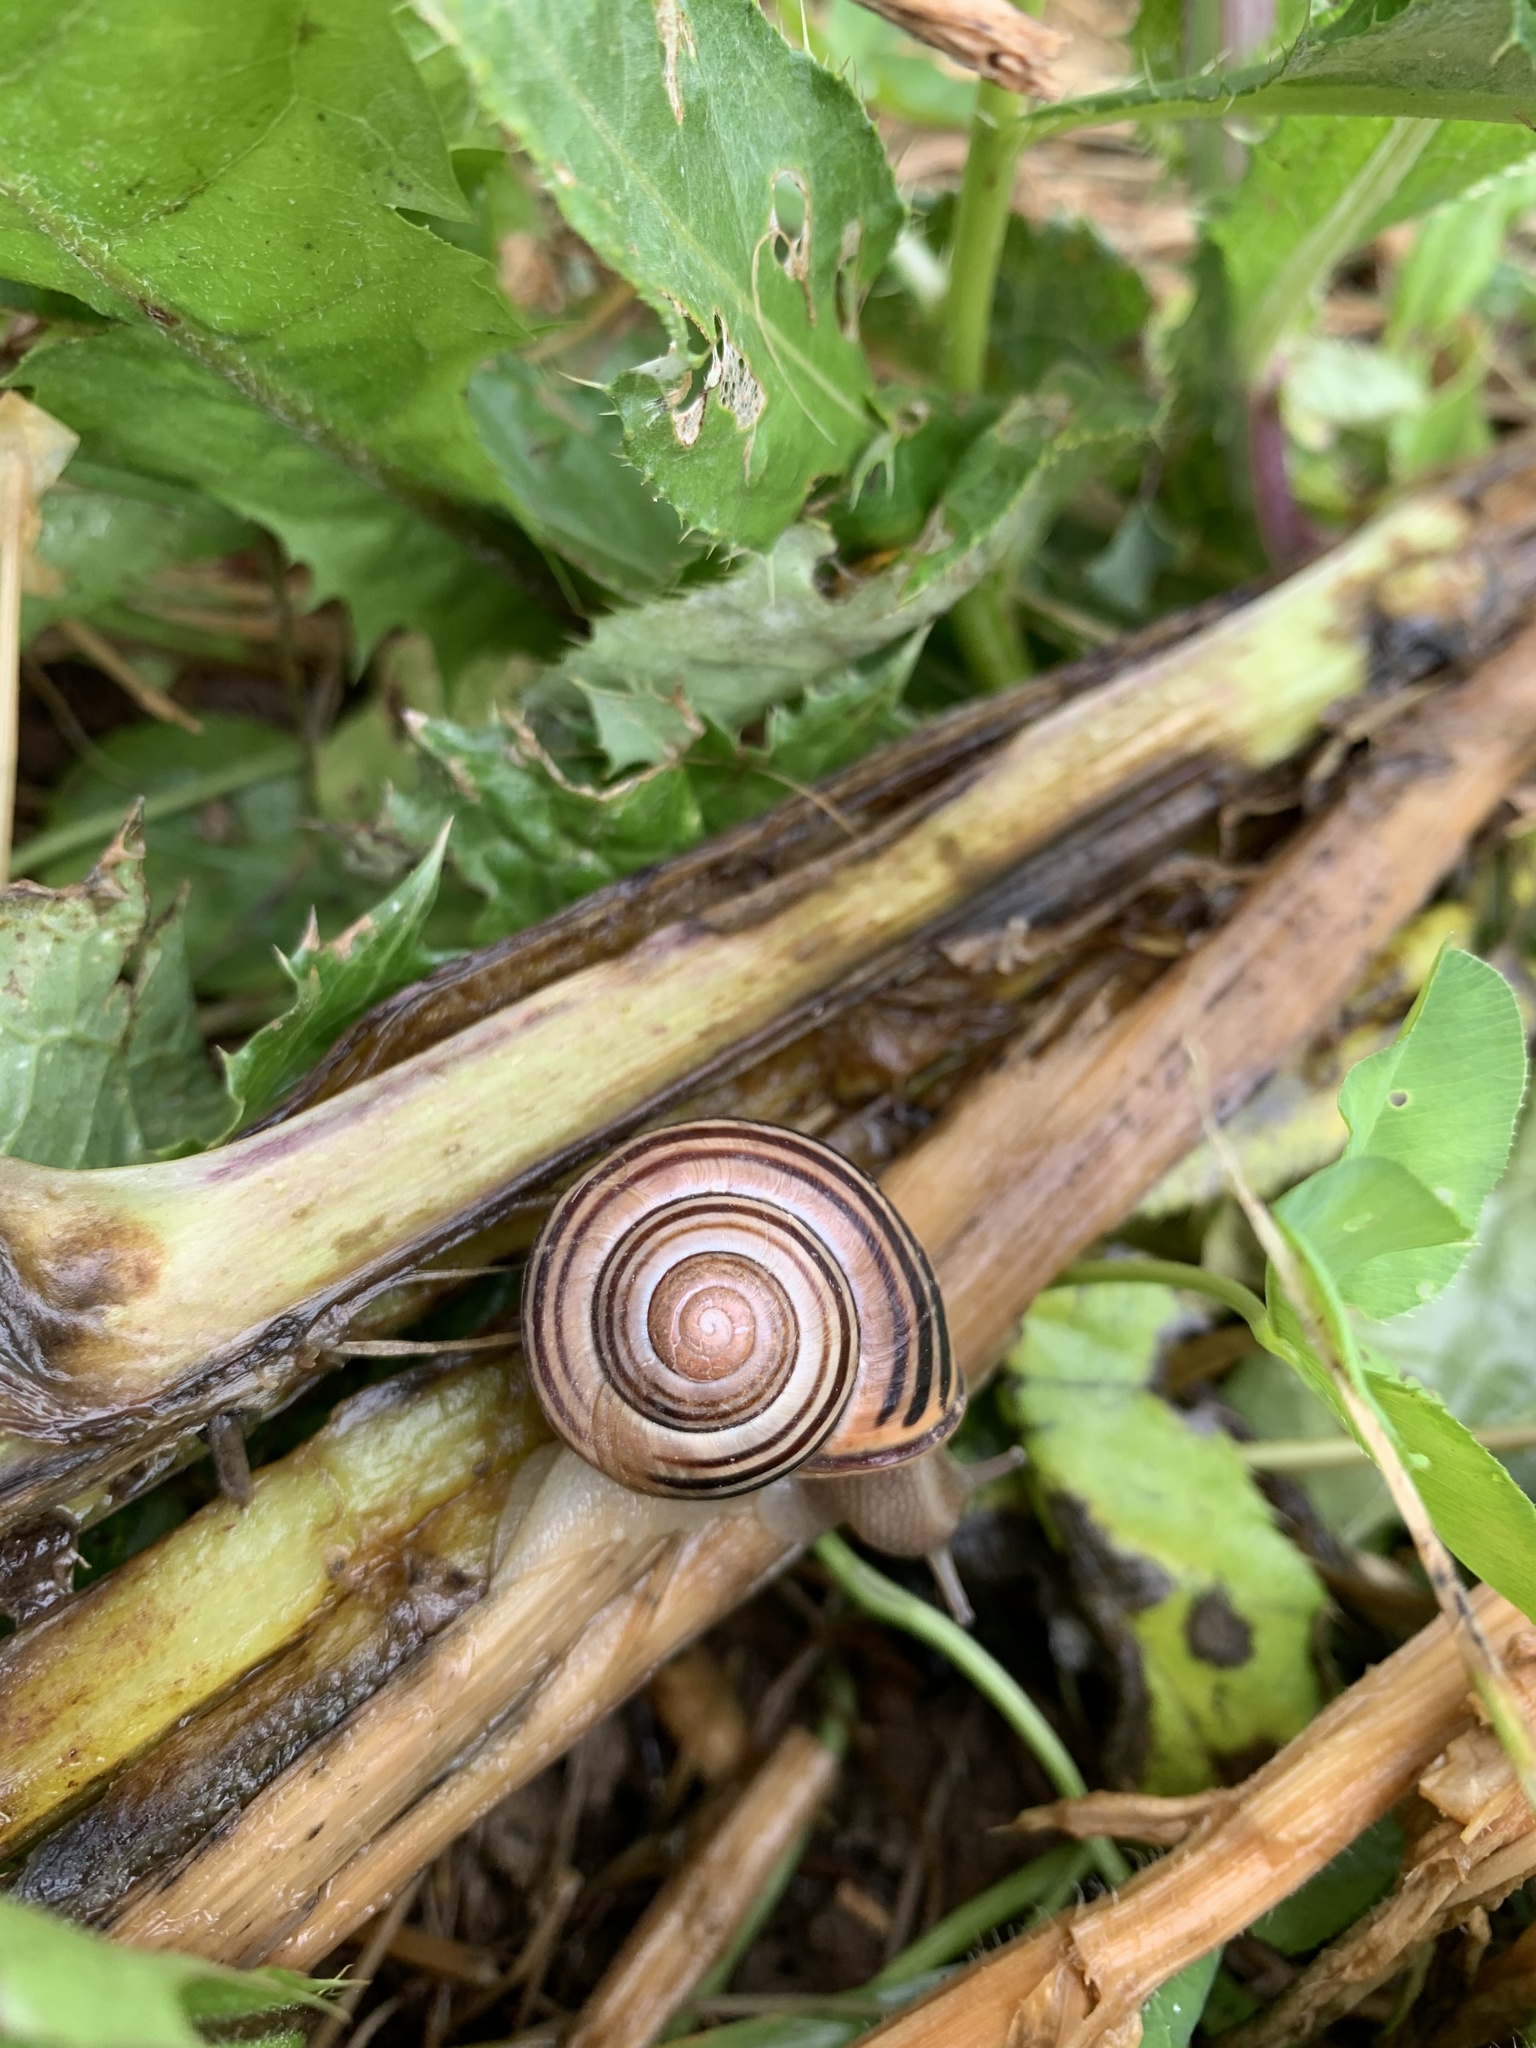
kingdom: Animalia
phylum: Mollusca
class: Gastropoda
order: Stylommatophora
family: Helicidae
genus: Cepaea
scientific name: Cepaea nemoralis
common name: Grovesnail
